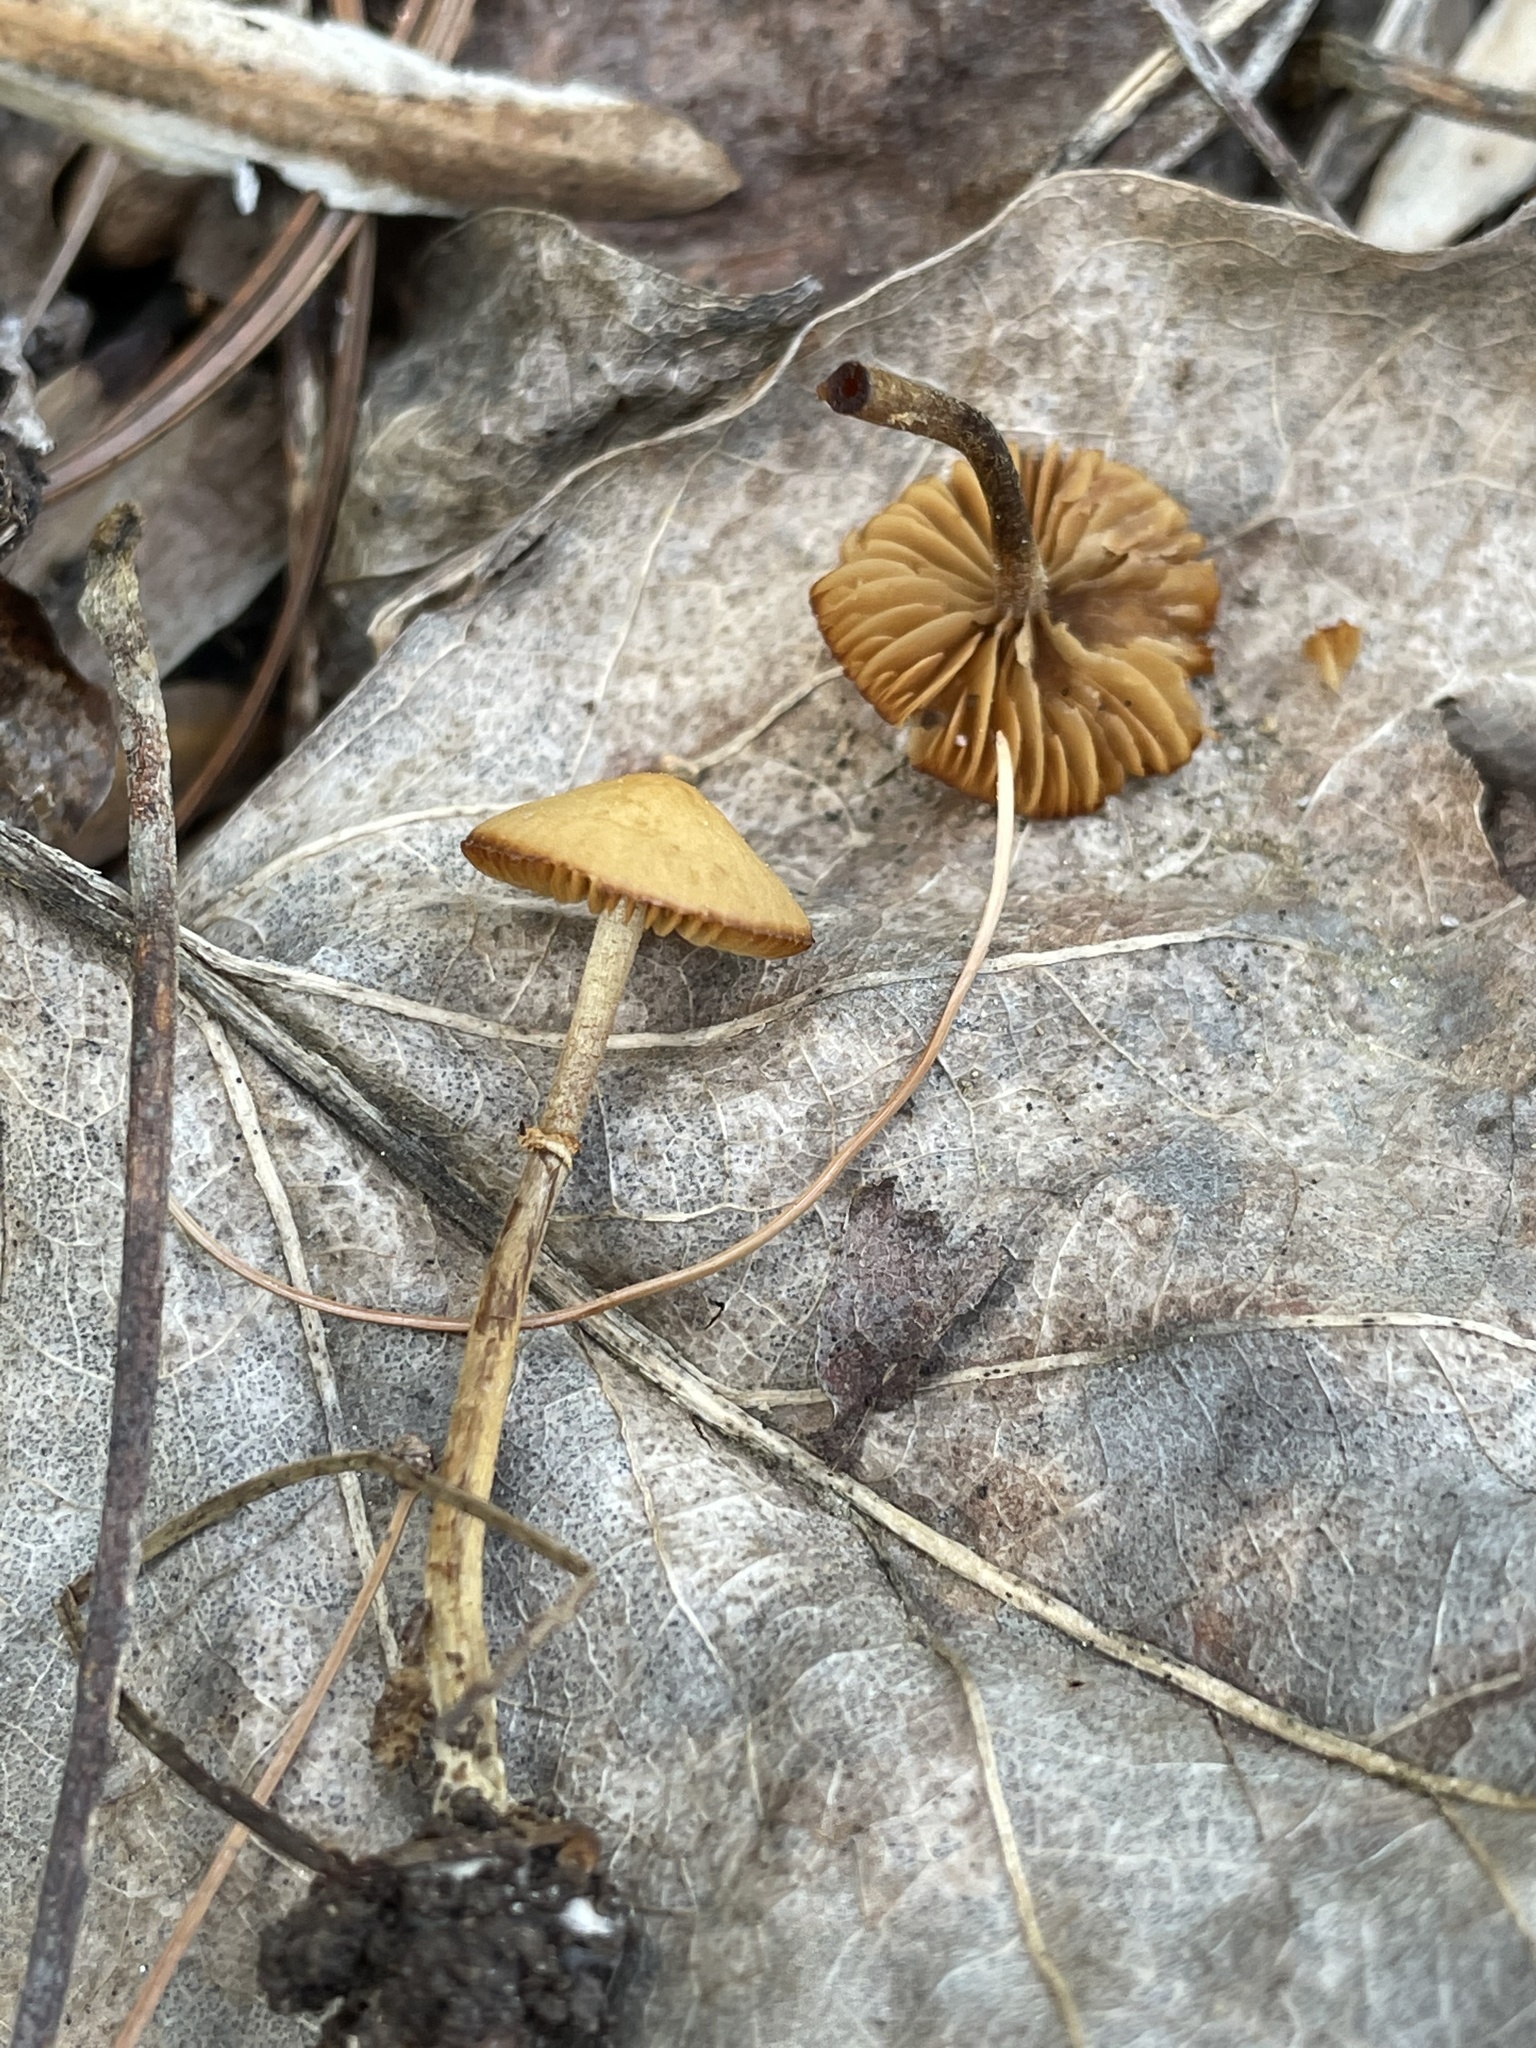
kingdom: Fungi
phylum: Basidiomycota
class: Agaricomycetes
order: Agaricales
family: Bolbitiaceae
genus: Conocybe
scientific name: Conocybe rugosa
